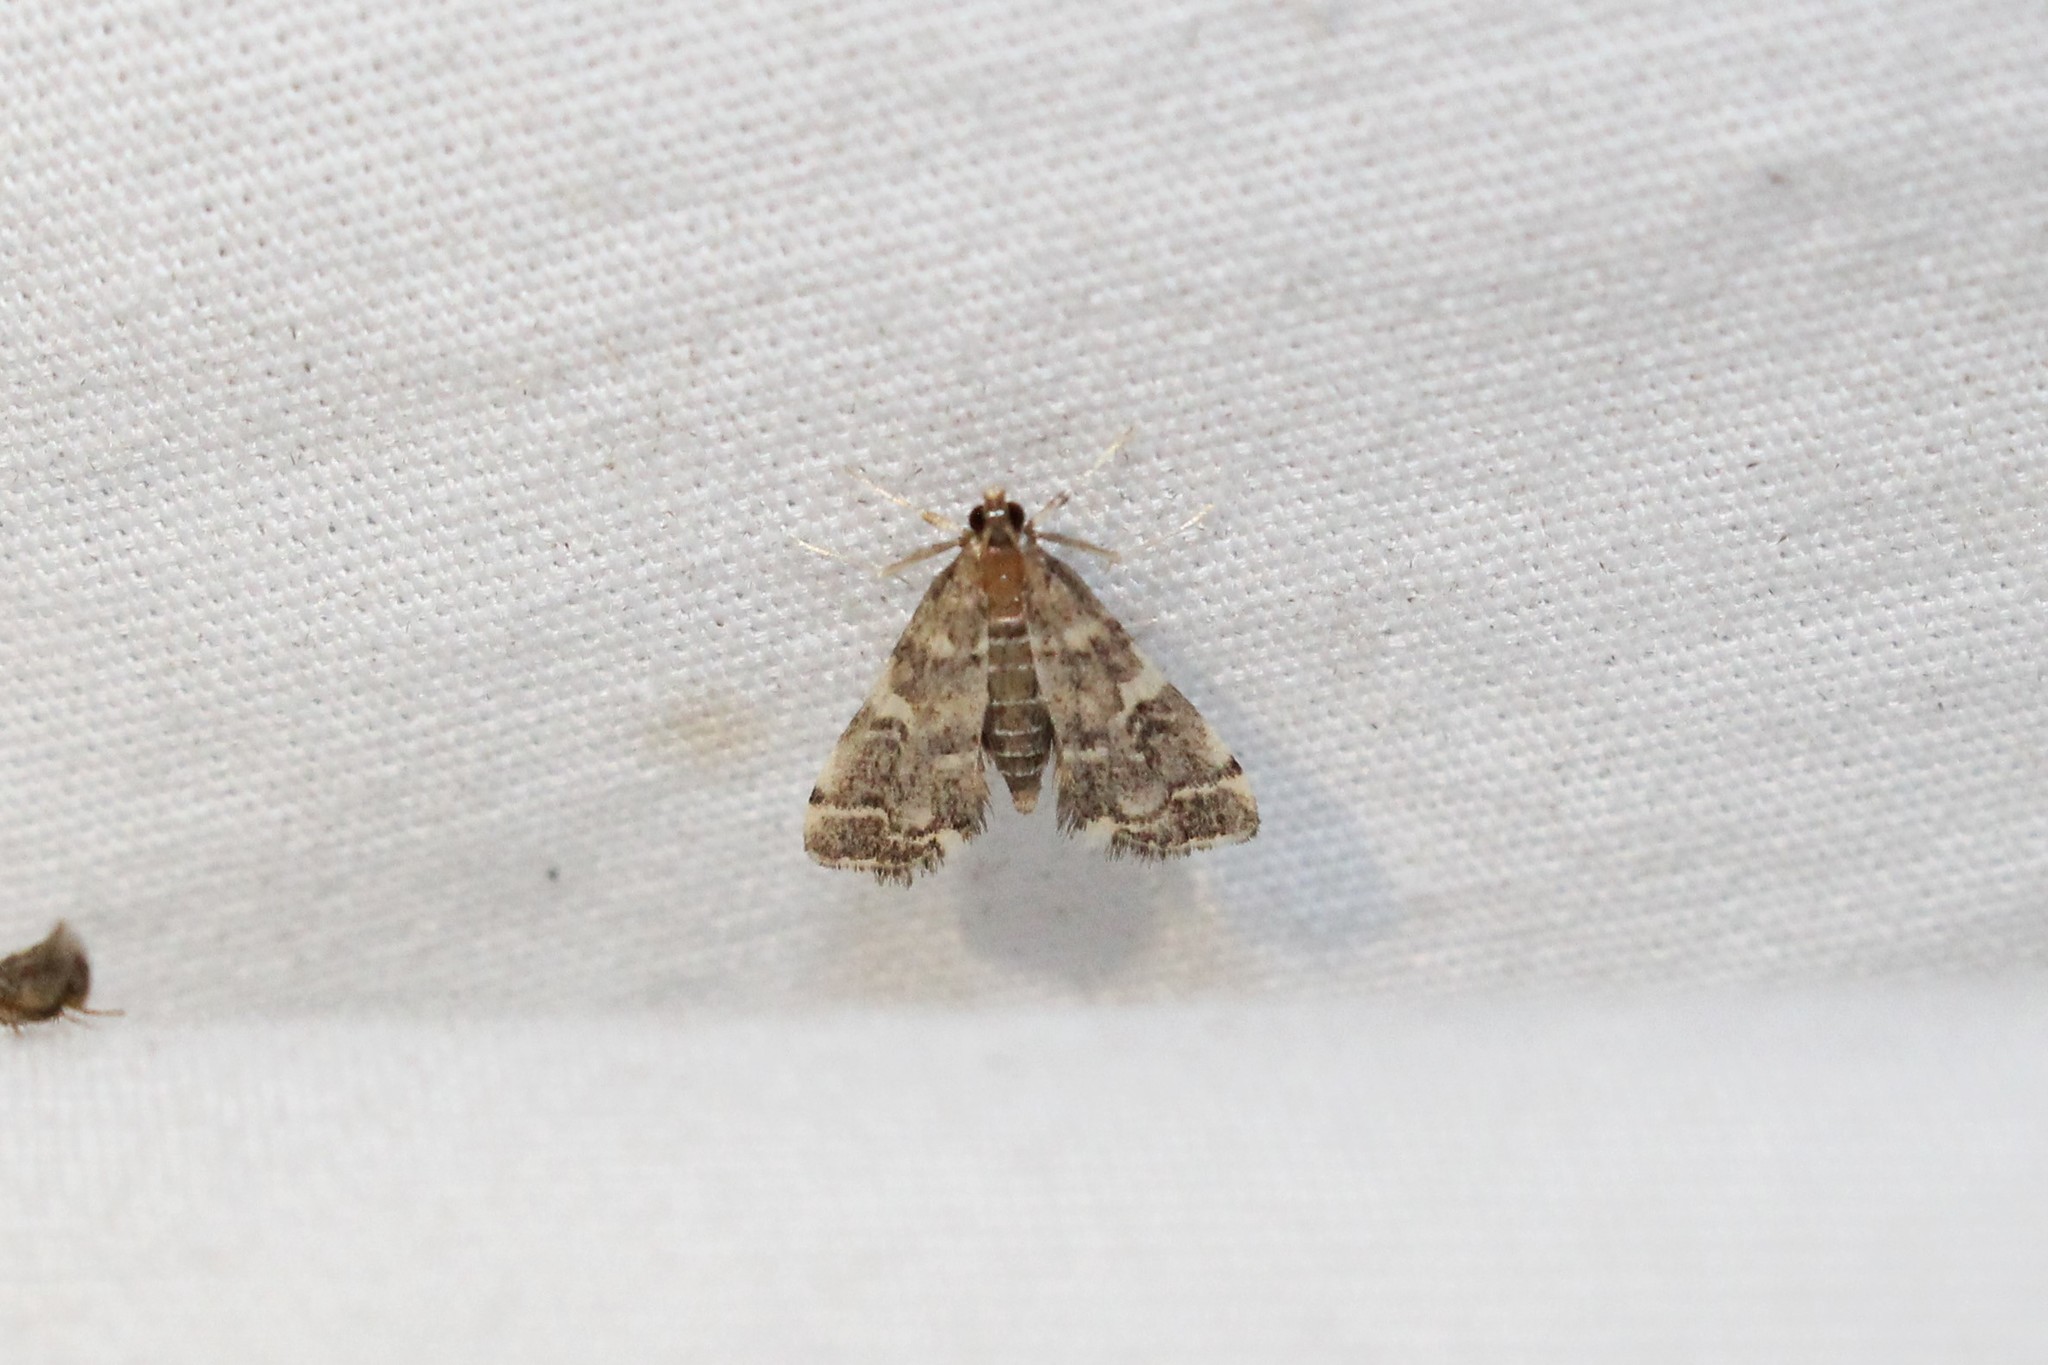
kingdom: Animalia
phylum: Arthropoda
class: Insecta
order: Lepidoptera
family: Crambidae
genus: Anageshna
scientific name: Anageshna primordialis
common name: Yellow-spotted webworm moth
